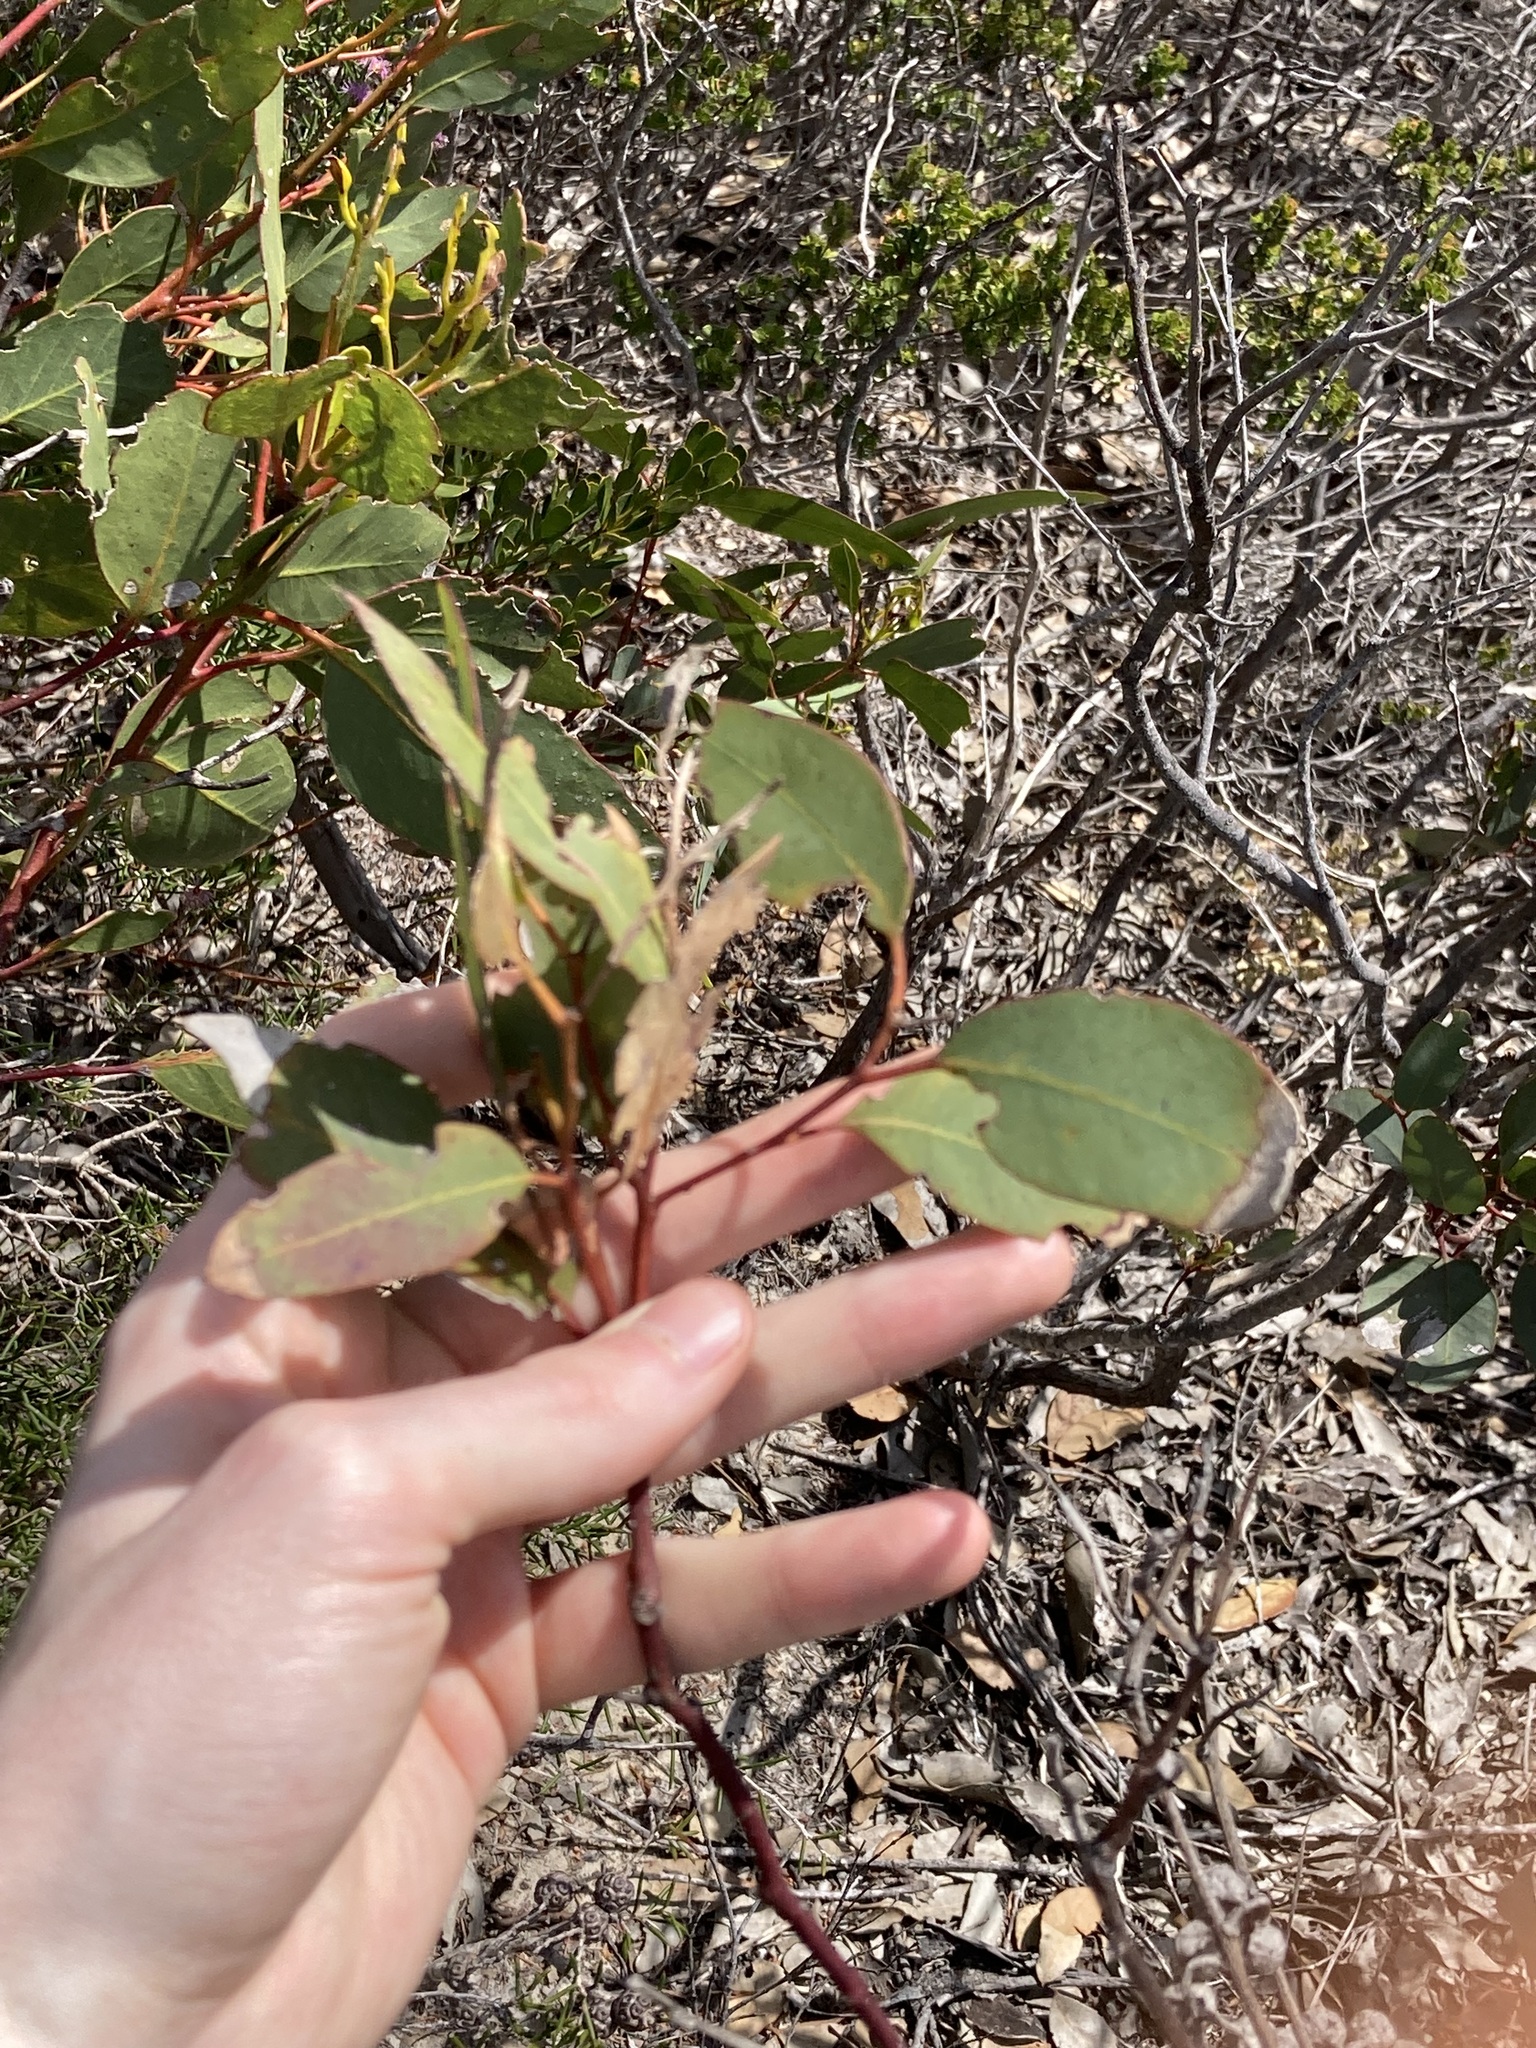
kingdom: Plantae
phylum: Tracheophyta
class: Magnoliopsida
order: Myrtales
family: Myrtaceae
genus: Eucalyptus
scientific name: Eucalyptus ecostata
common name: Coastal silver mallee
